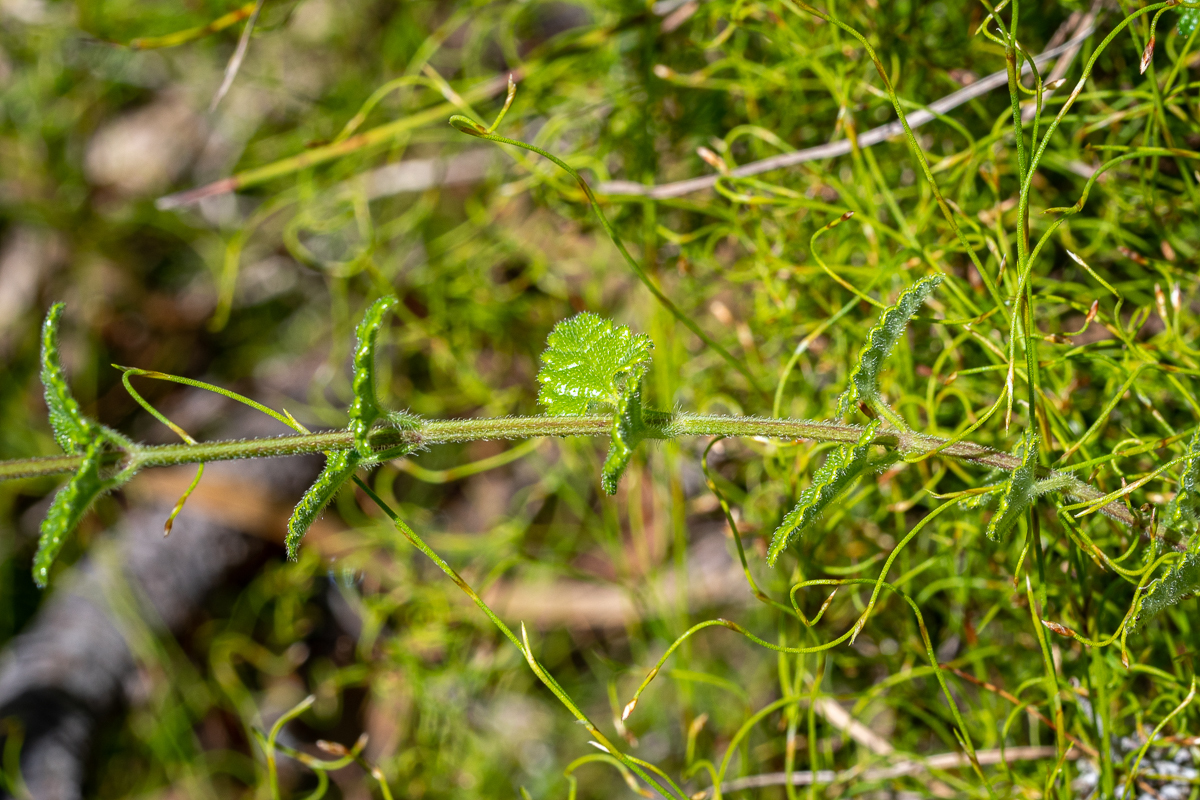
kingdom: Plantae
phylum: Tracheophyta
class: Magnoliopsida
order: Lamiales
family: Lamiaceae
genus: Stachys
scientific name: Stachys aethiopica
